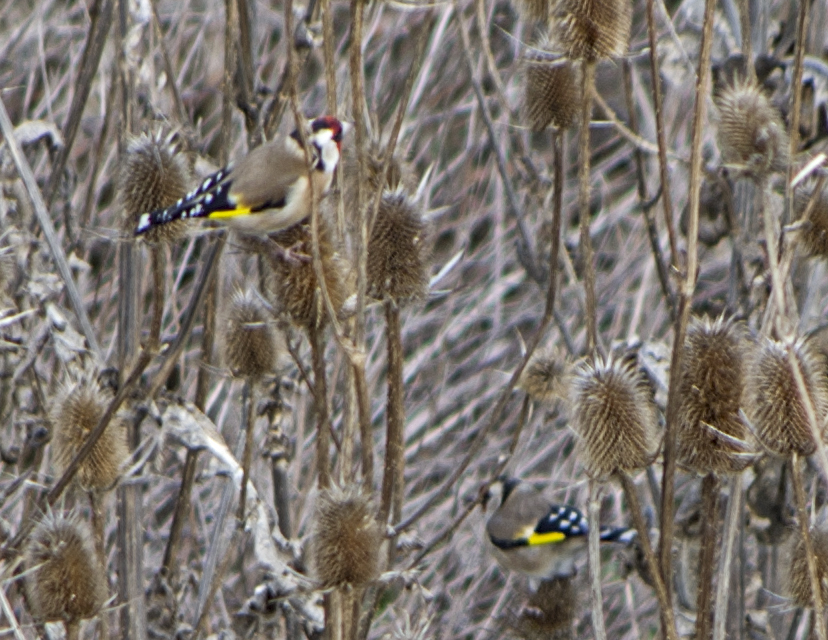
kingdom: Animalia
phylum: Chordata
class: Aves
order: Passeriformes
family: Fringillidae
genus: Carduelis
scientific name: Carduelis carduelis
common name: European goldfinch
